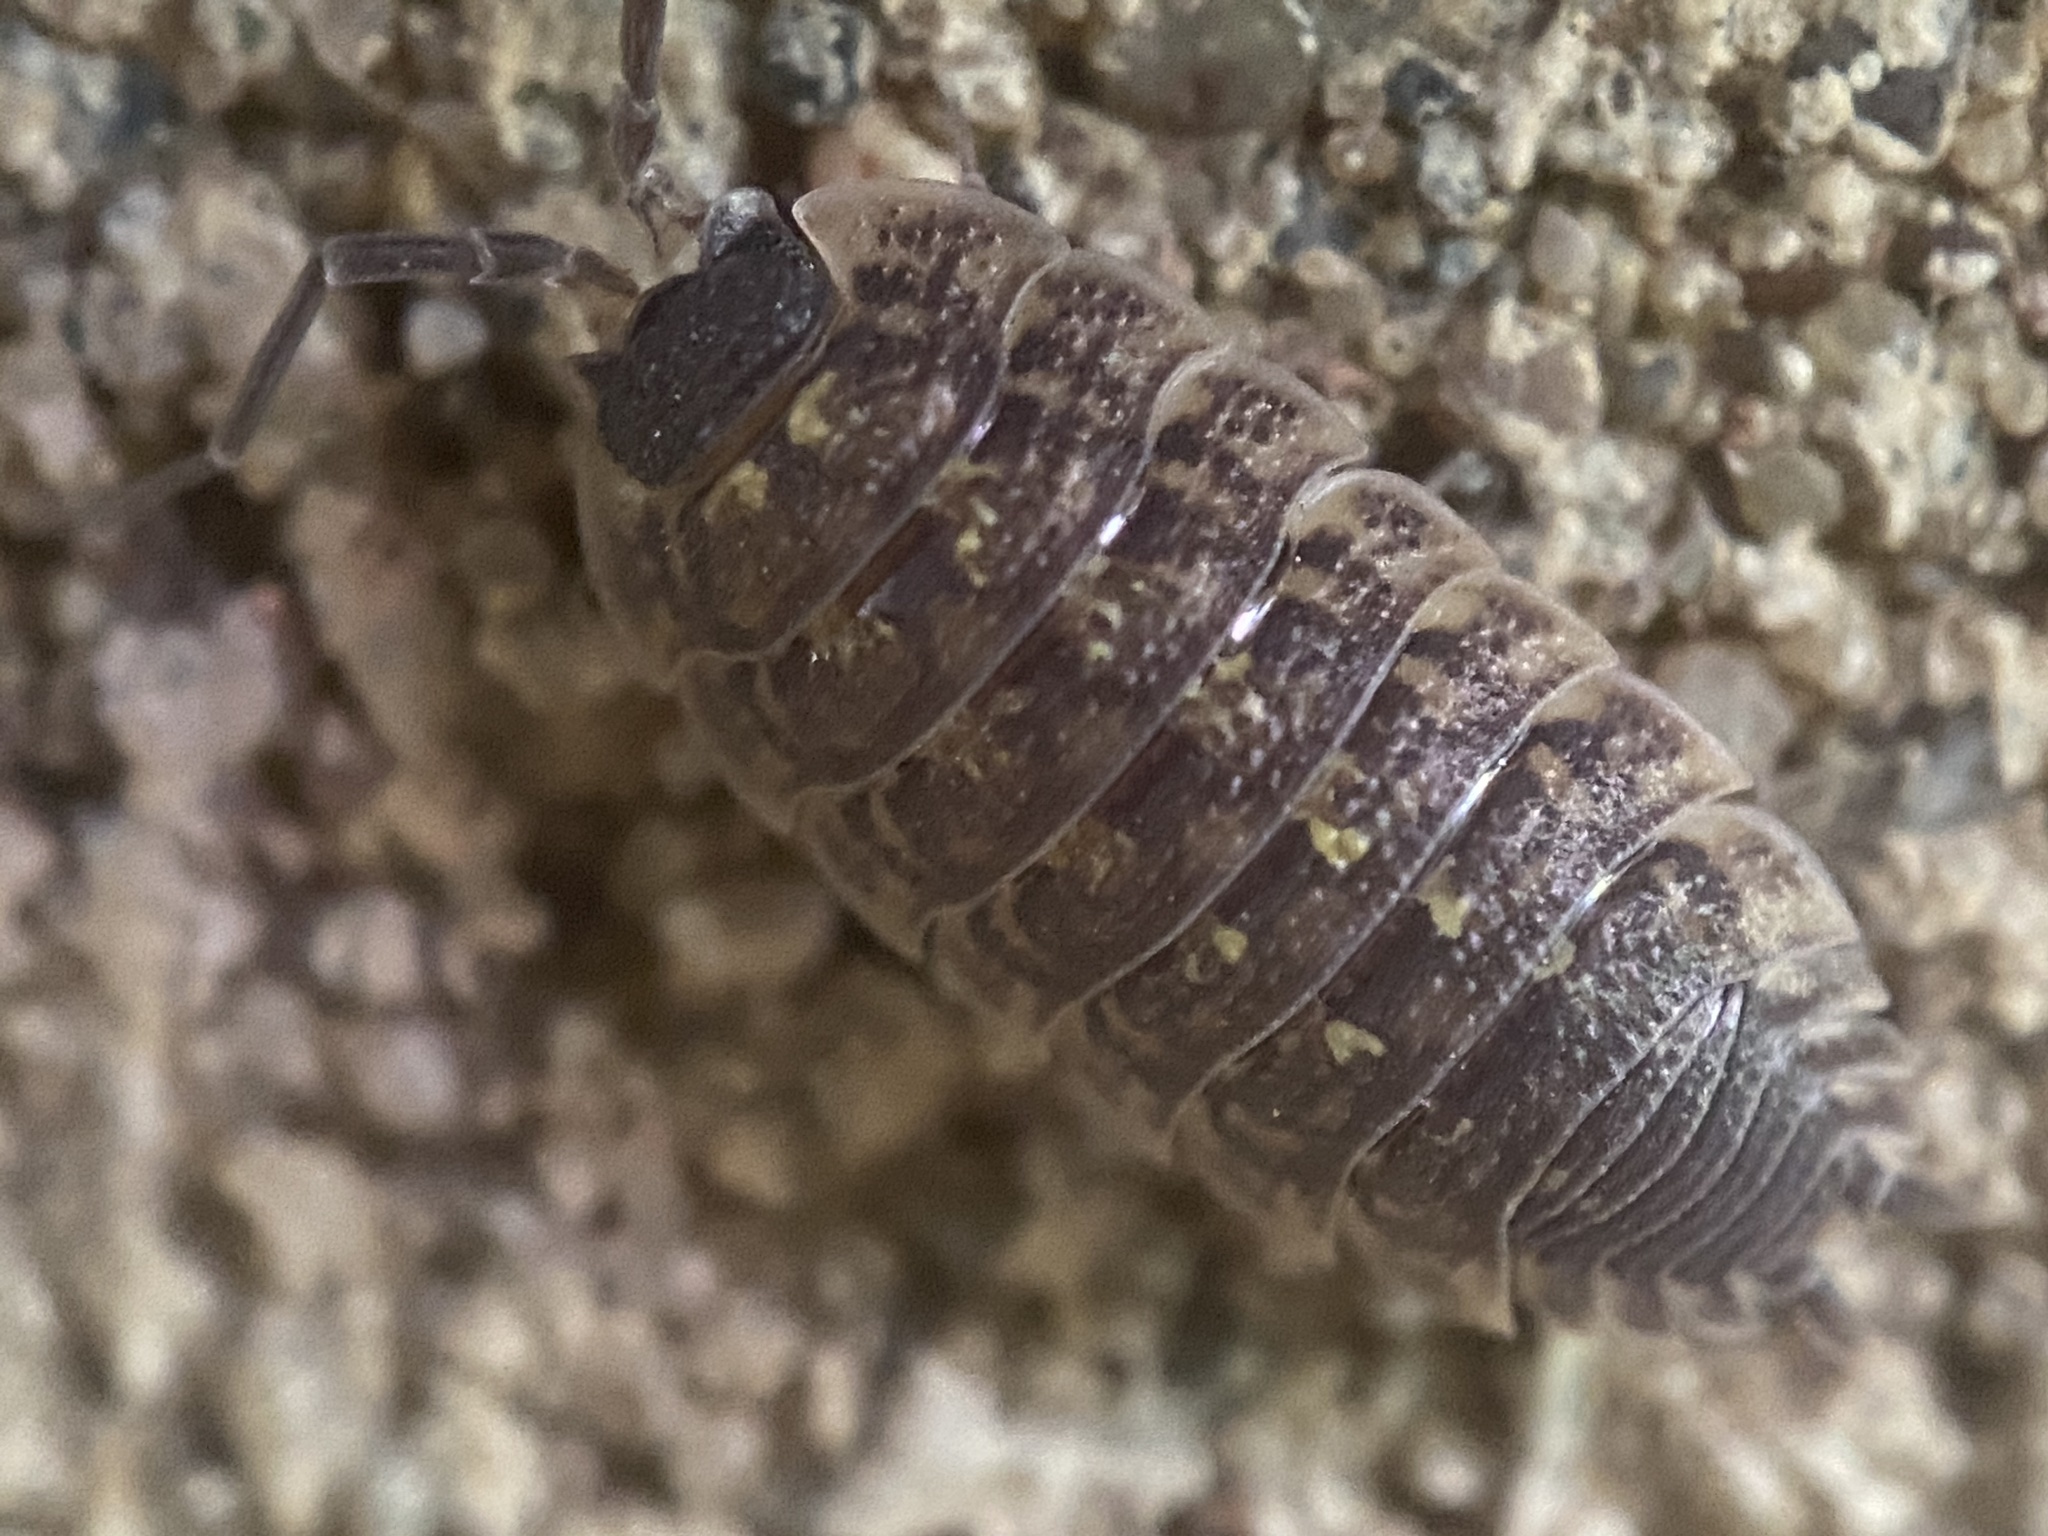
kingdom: Animalia
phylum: Arthropoda
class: Malacostraca
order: Isopoda
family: Porcellionidae
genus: Porcellio
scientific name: Porcellio spinicornis
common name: Painted woodlouse
